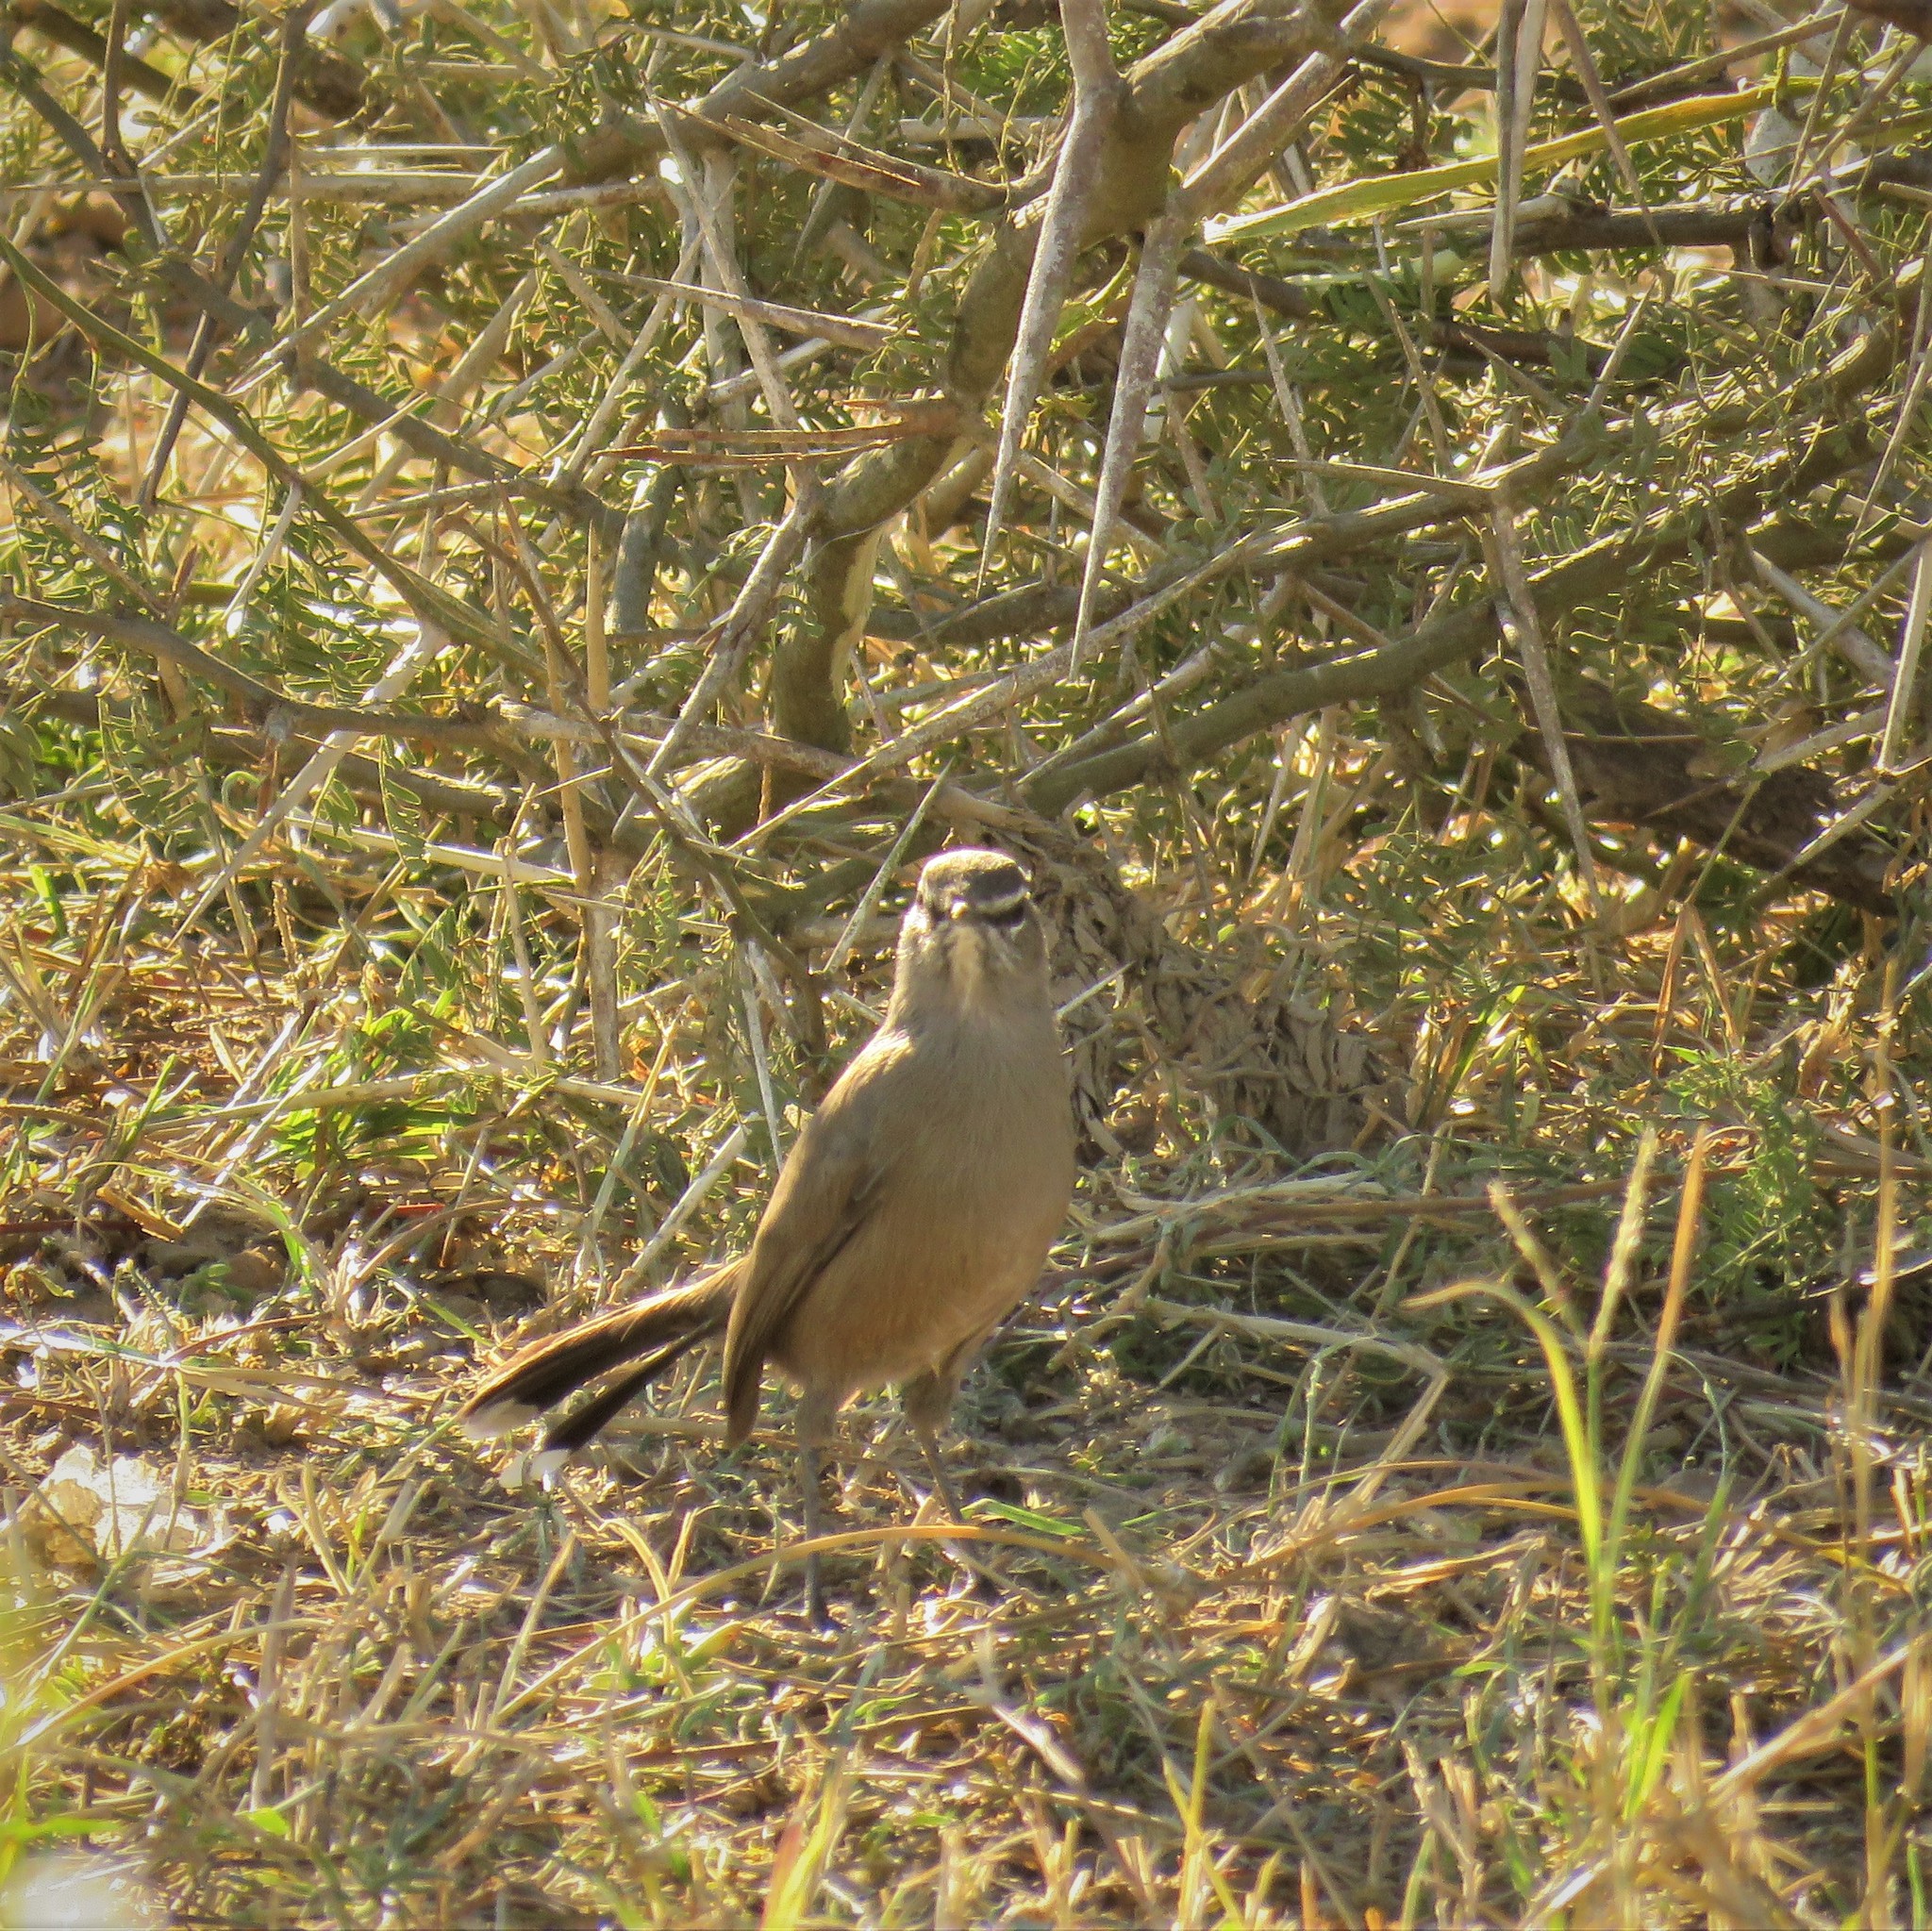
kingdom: Animalia
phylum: Chordata
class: Aves
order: Passeriformes
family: Muscicapidae
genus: Erythropygia
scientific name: Erythropygia coryphoeus
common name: Karoo scrub robin
